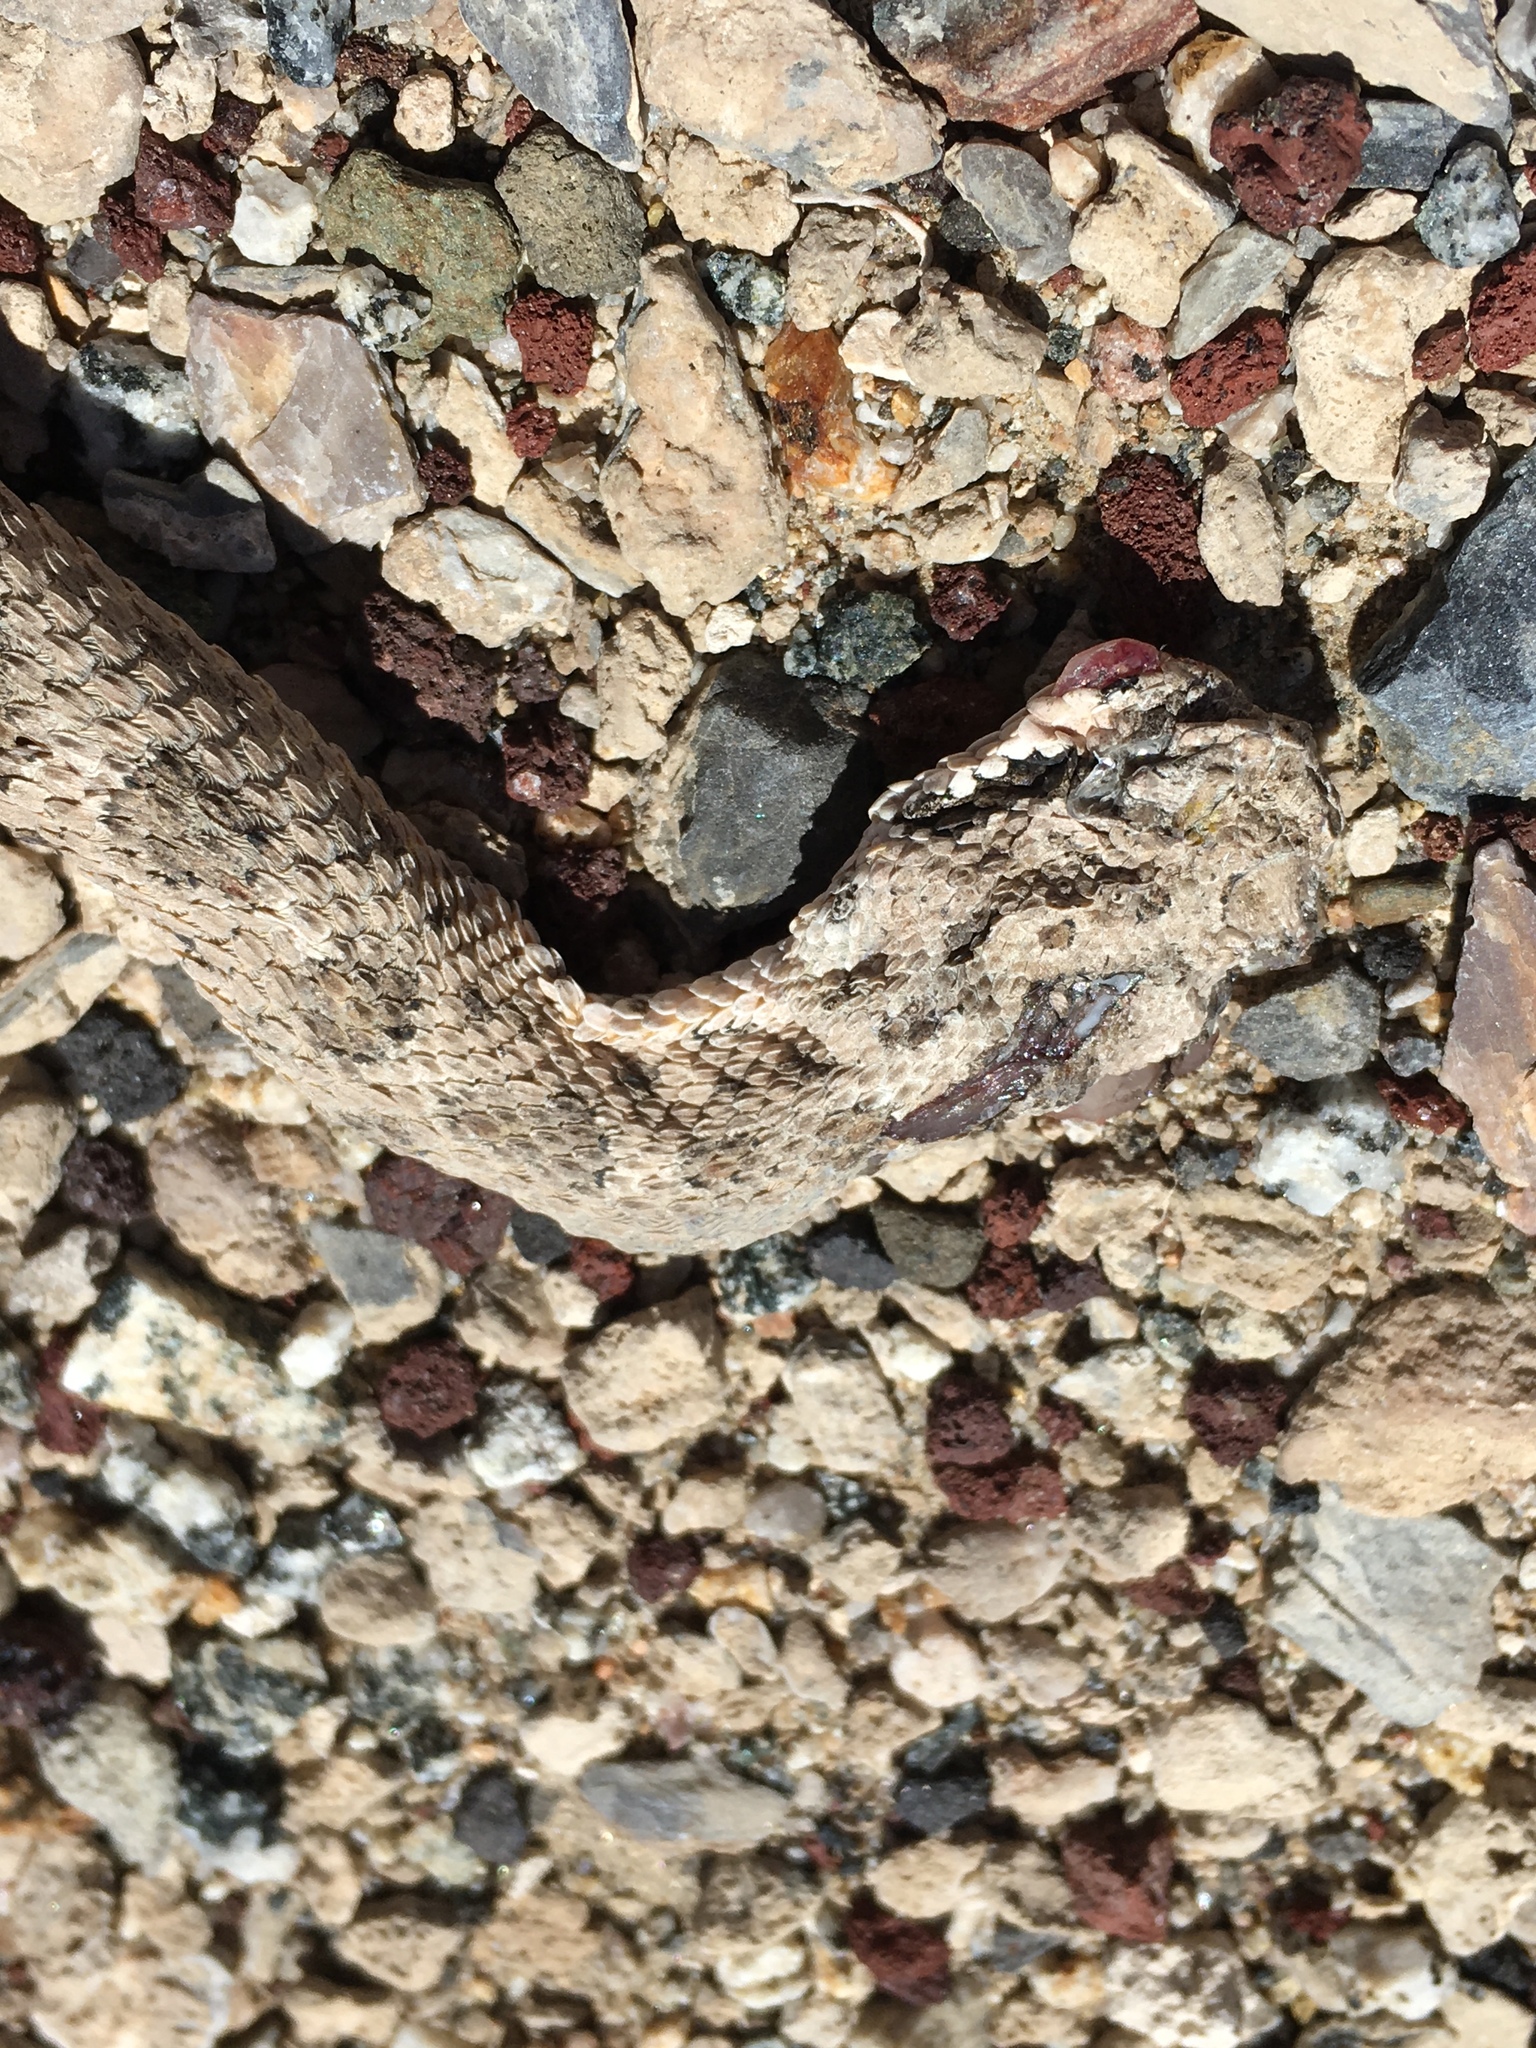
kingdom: Animalia
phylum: Chordata
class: Squamata
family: Viperidae
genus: Crotalus
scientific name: Crotalus cerastes
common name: Sidewinder
